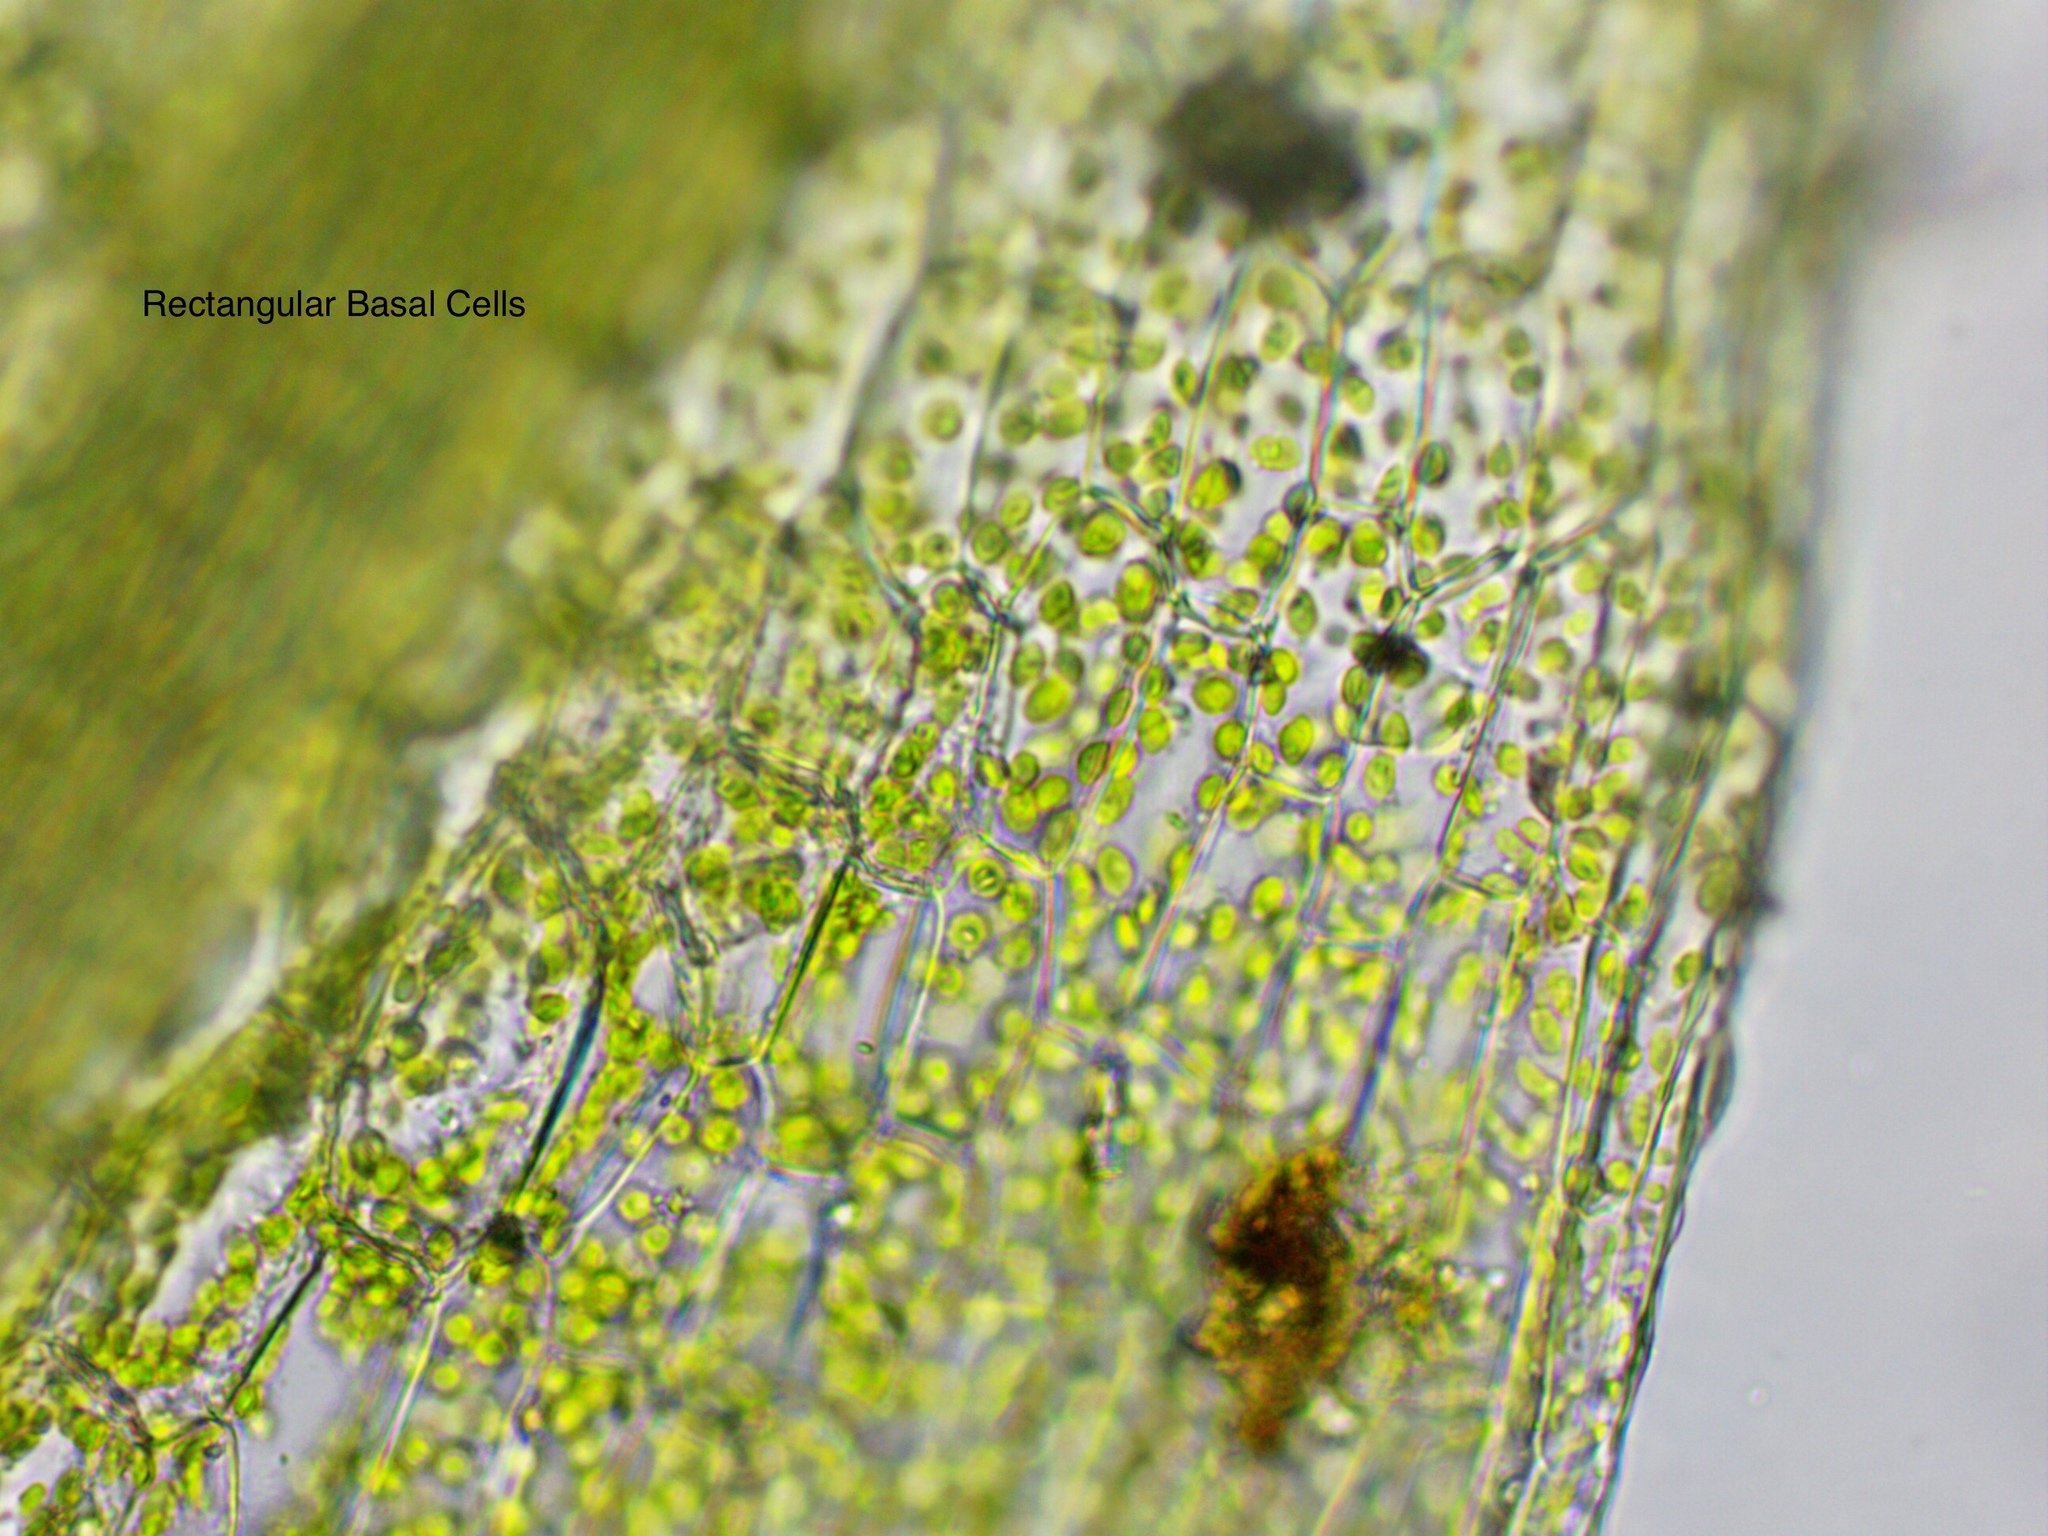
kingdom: Plantae
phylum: Bryophyta
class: Bryopsida
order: Bryales
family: Bryaceae
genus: Rosulabryum
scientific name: Rosulabryum capillare
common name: Capillary thread-moss
